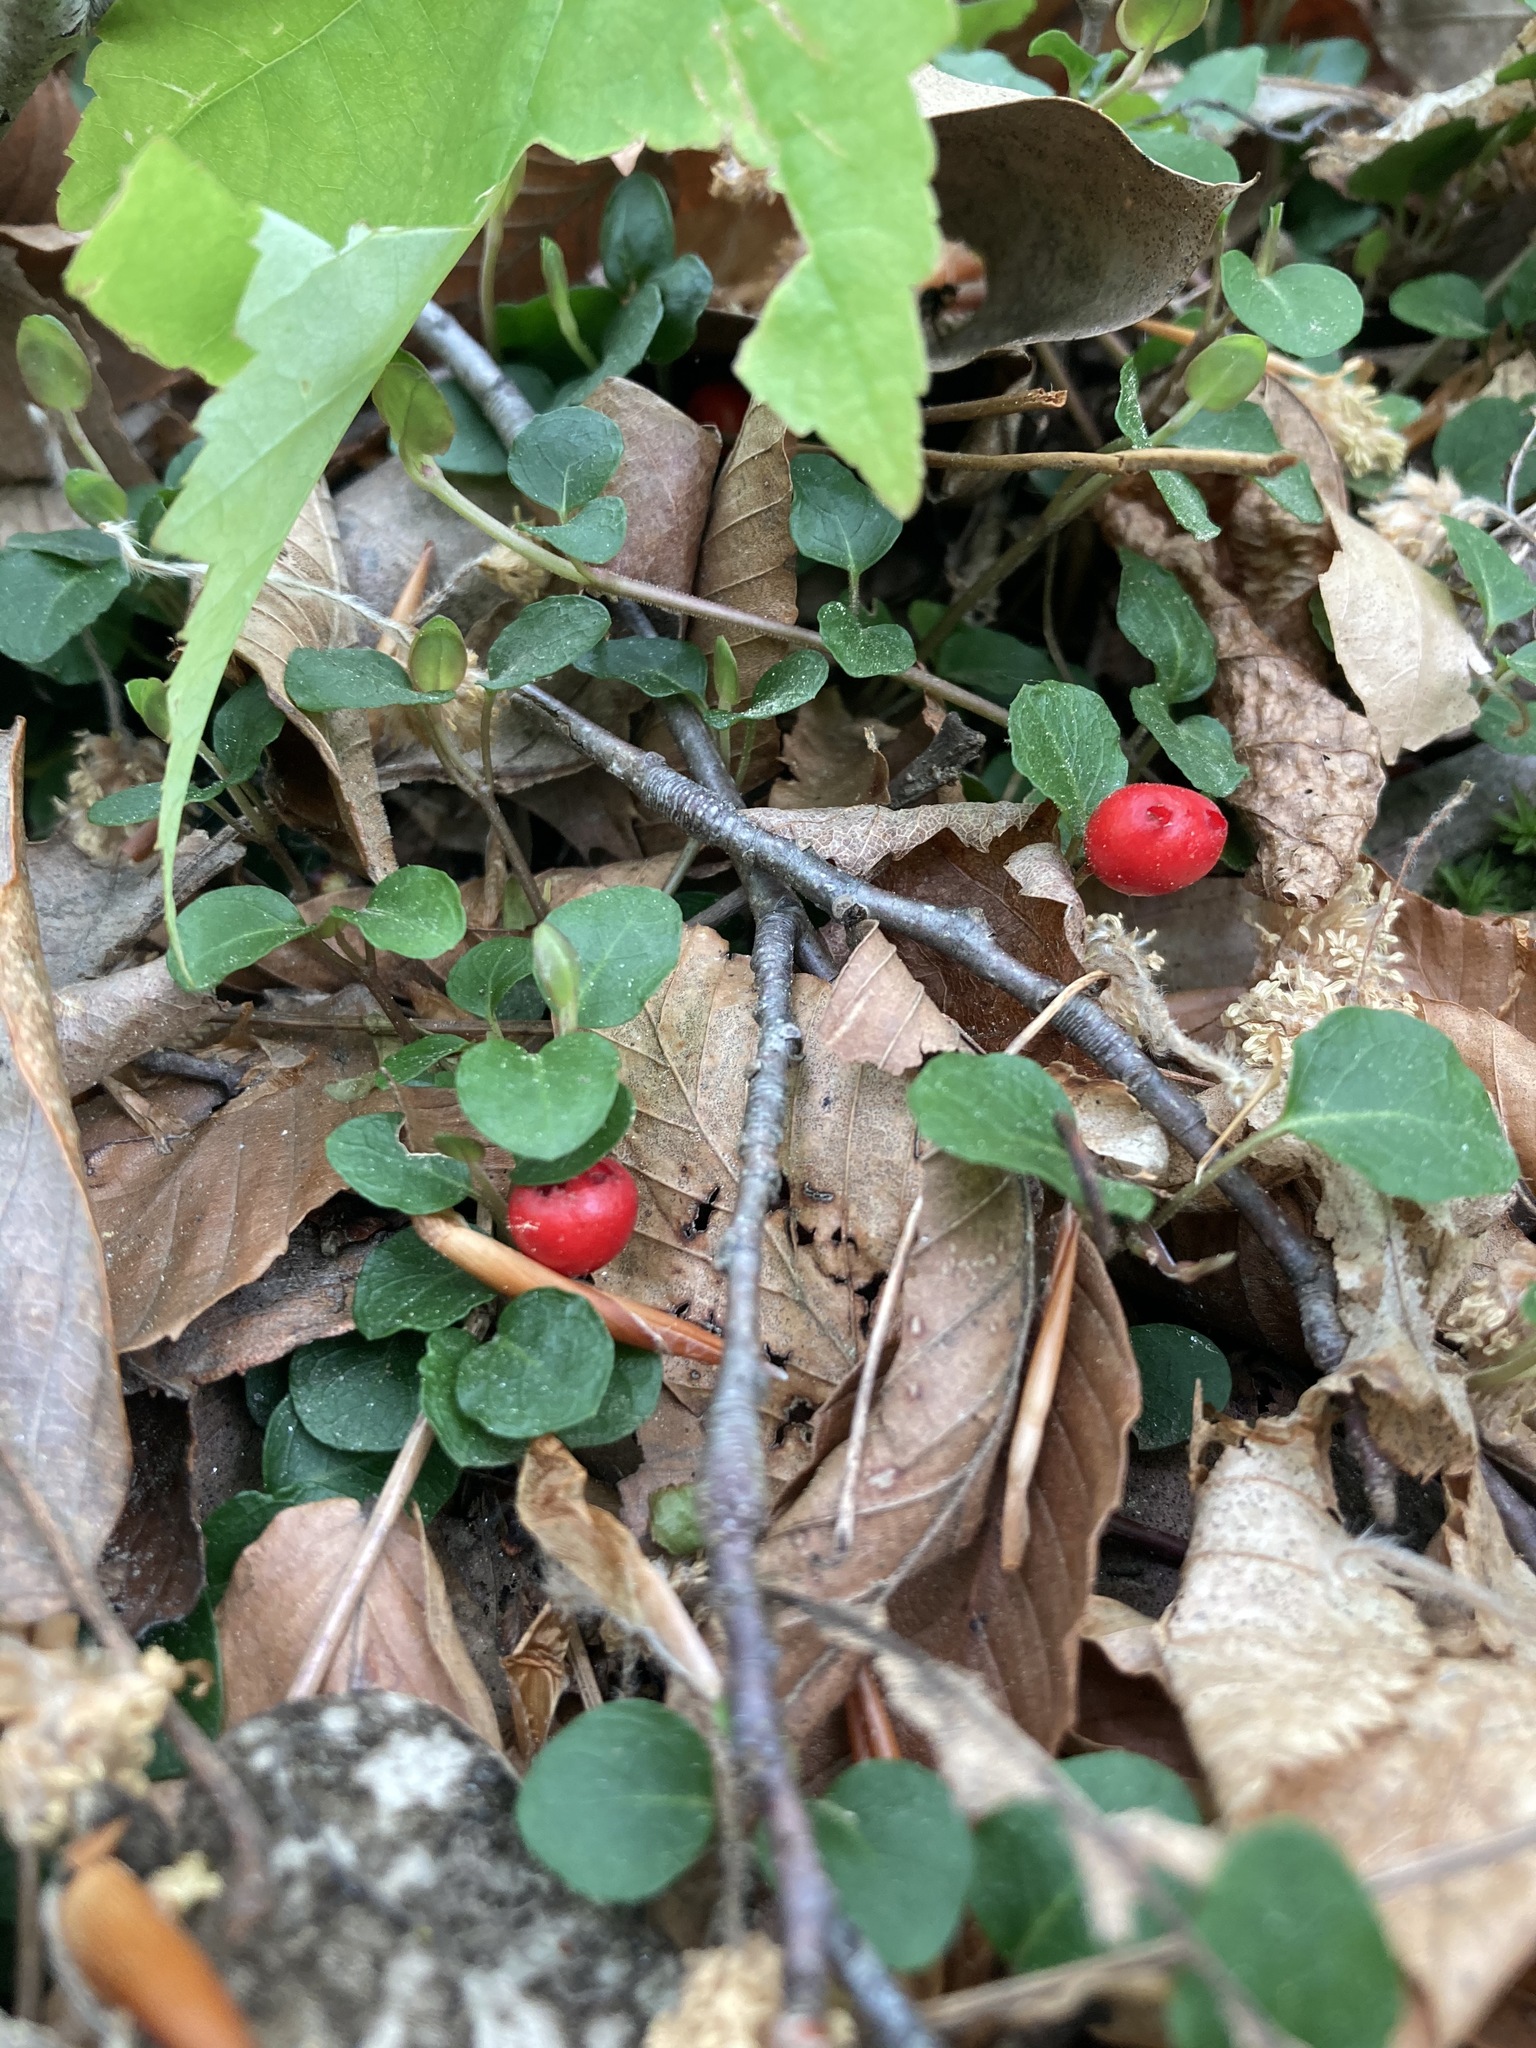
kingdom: Plantae
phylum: Tracheophyta
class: Magnoliopsida
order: Gentianales
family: Rubiaceae
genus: Mitchella
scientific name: Mitchella repens
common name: Partridge-berry
